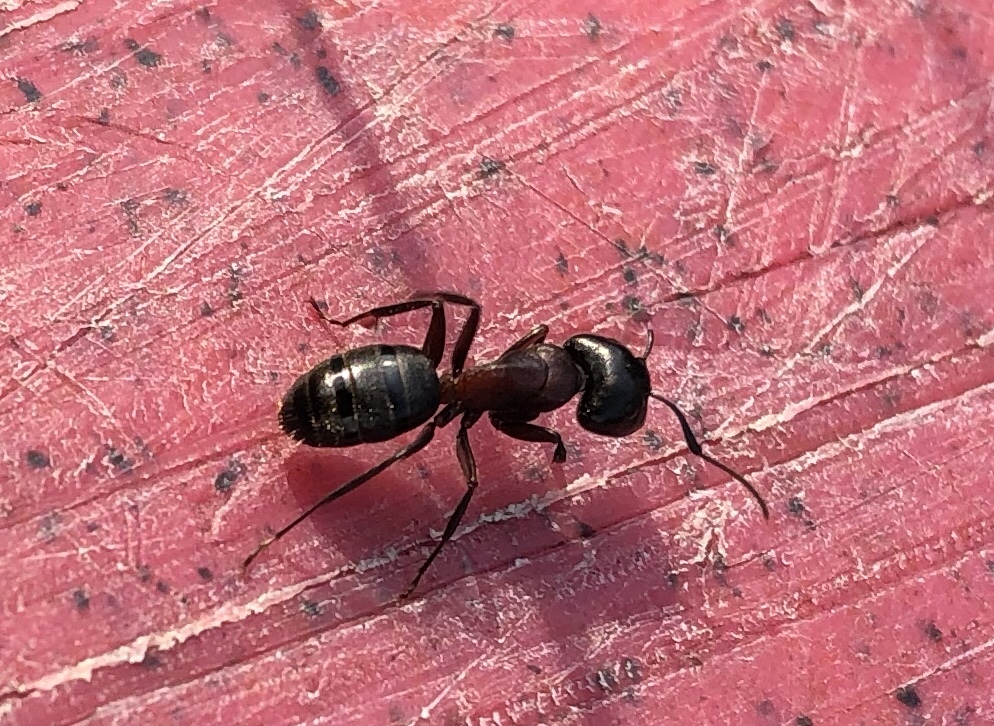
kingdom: Animalia
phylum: Arthropoda
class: Insecta
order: Hymenoptera
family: Formicidae
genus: Camponotus
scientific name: Camponotus novaeboracensis
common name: New york carpenter ant
